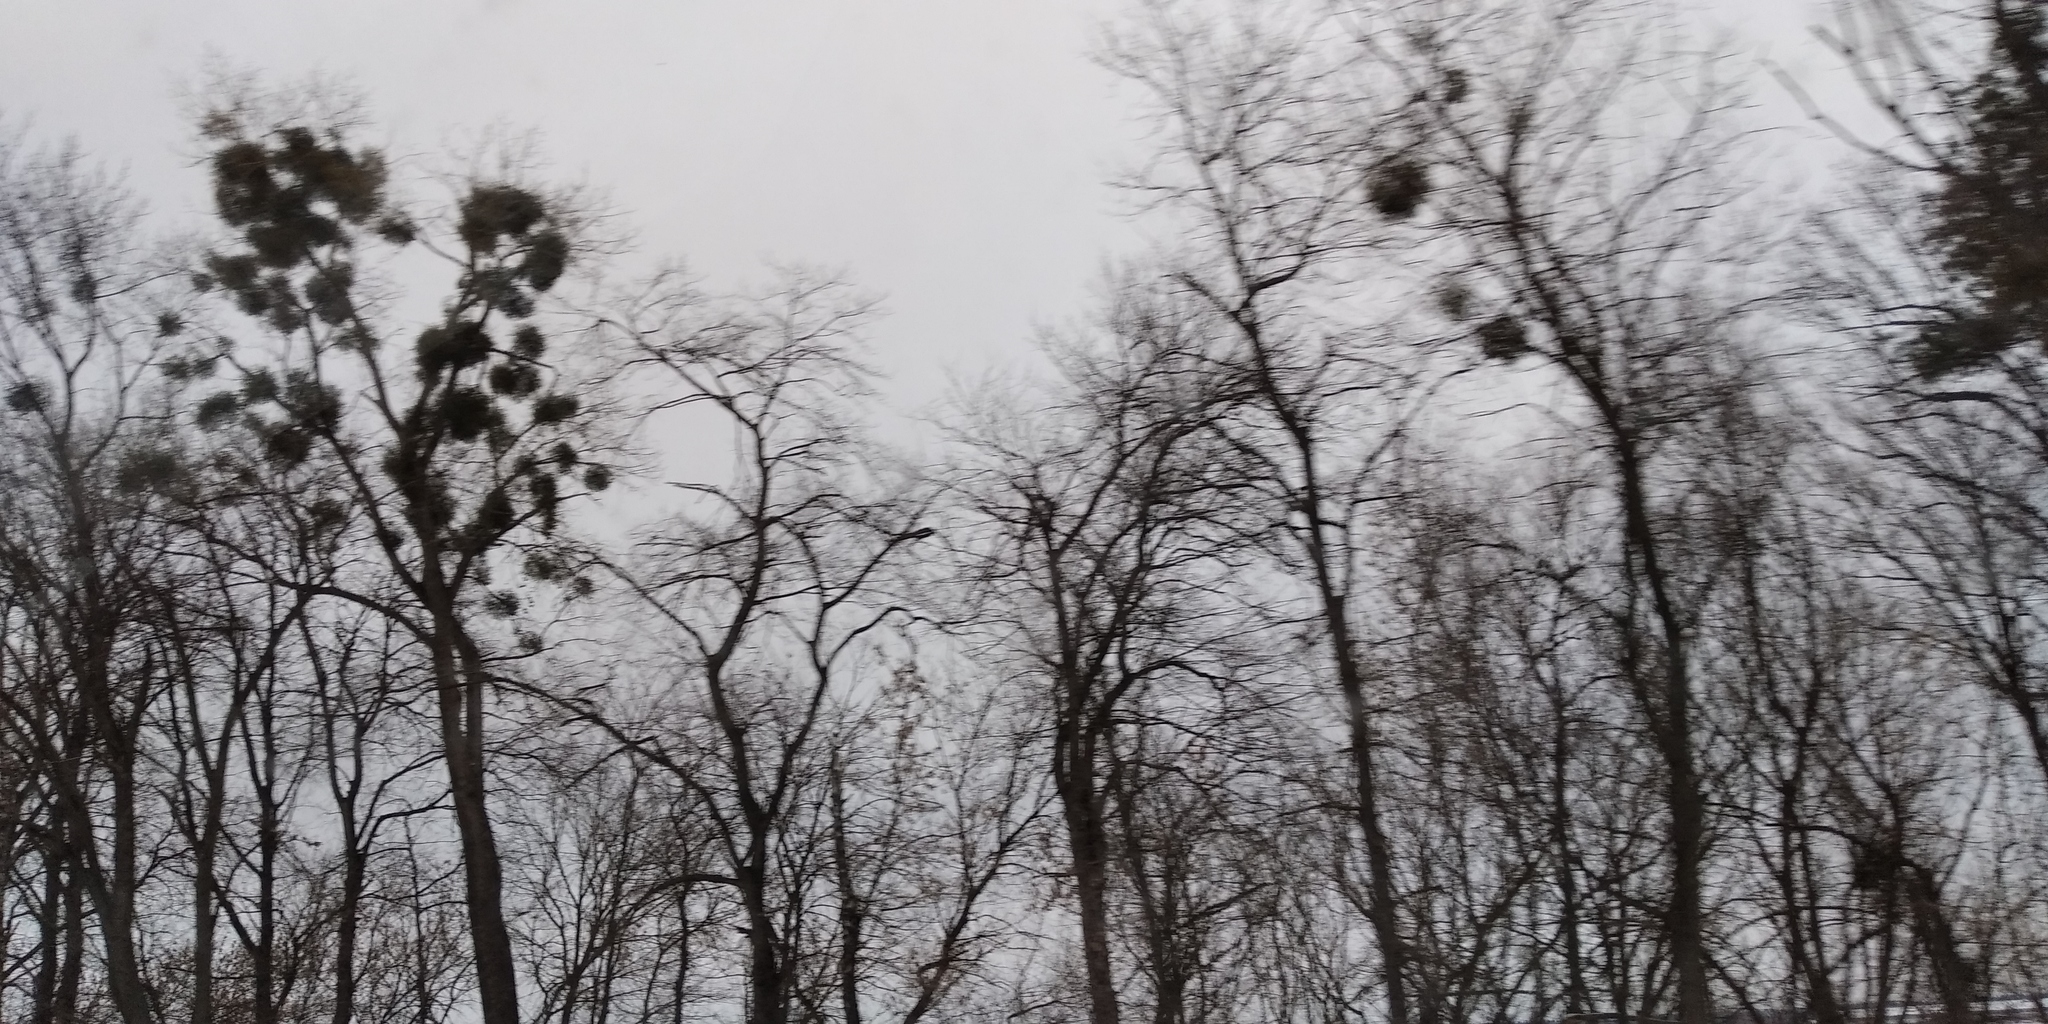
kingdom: Plantae
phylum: Tracheophyta
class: Magnoliopsida
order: Santalales
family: Viscaceae
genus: Viscum
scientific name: Viscum album
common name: Mistletoe
